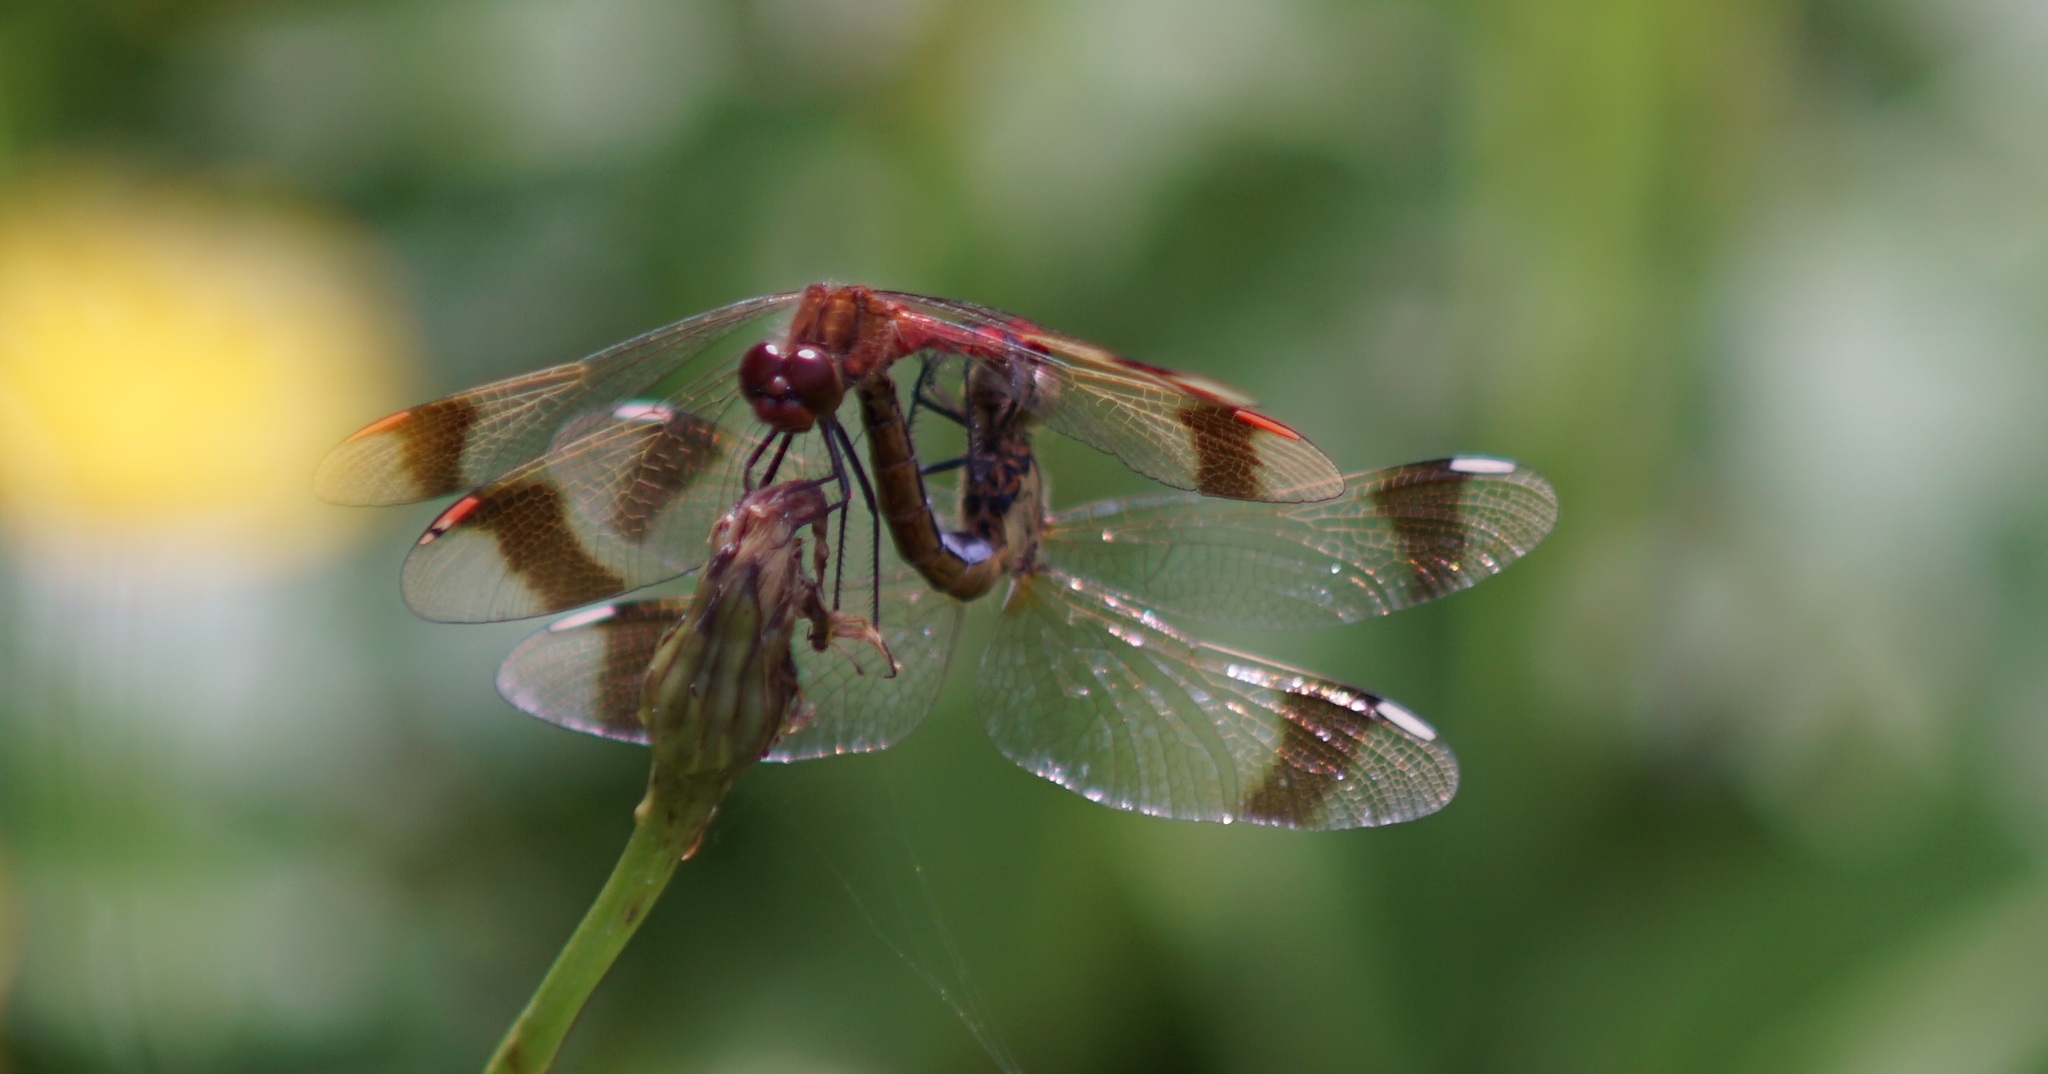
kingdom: Animalia
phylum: Arthropoda
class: Insecta
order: Odonata
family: Libellulidae
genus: Sympetrum
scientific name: Sympetrum pedemontanum
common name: Banded darter
